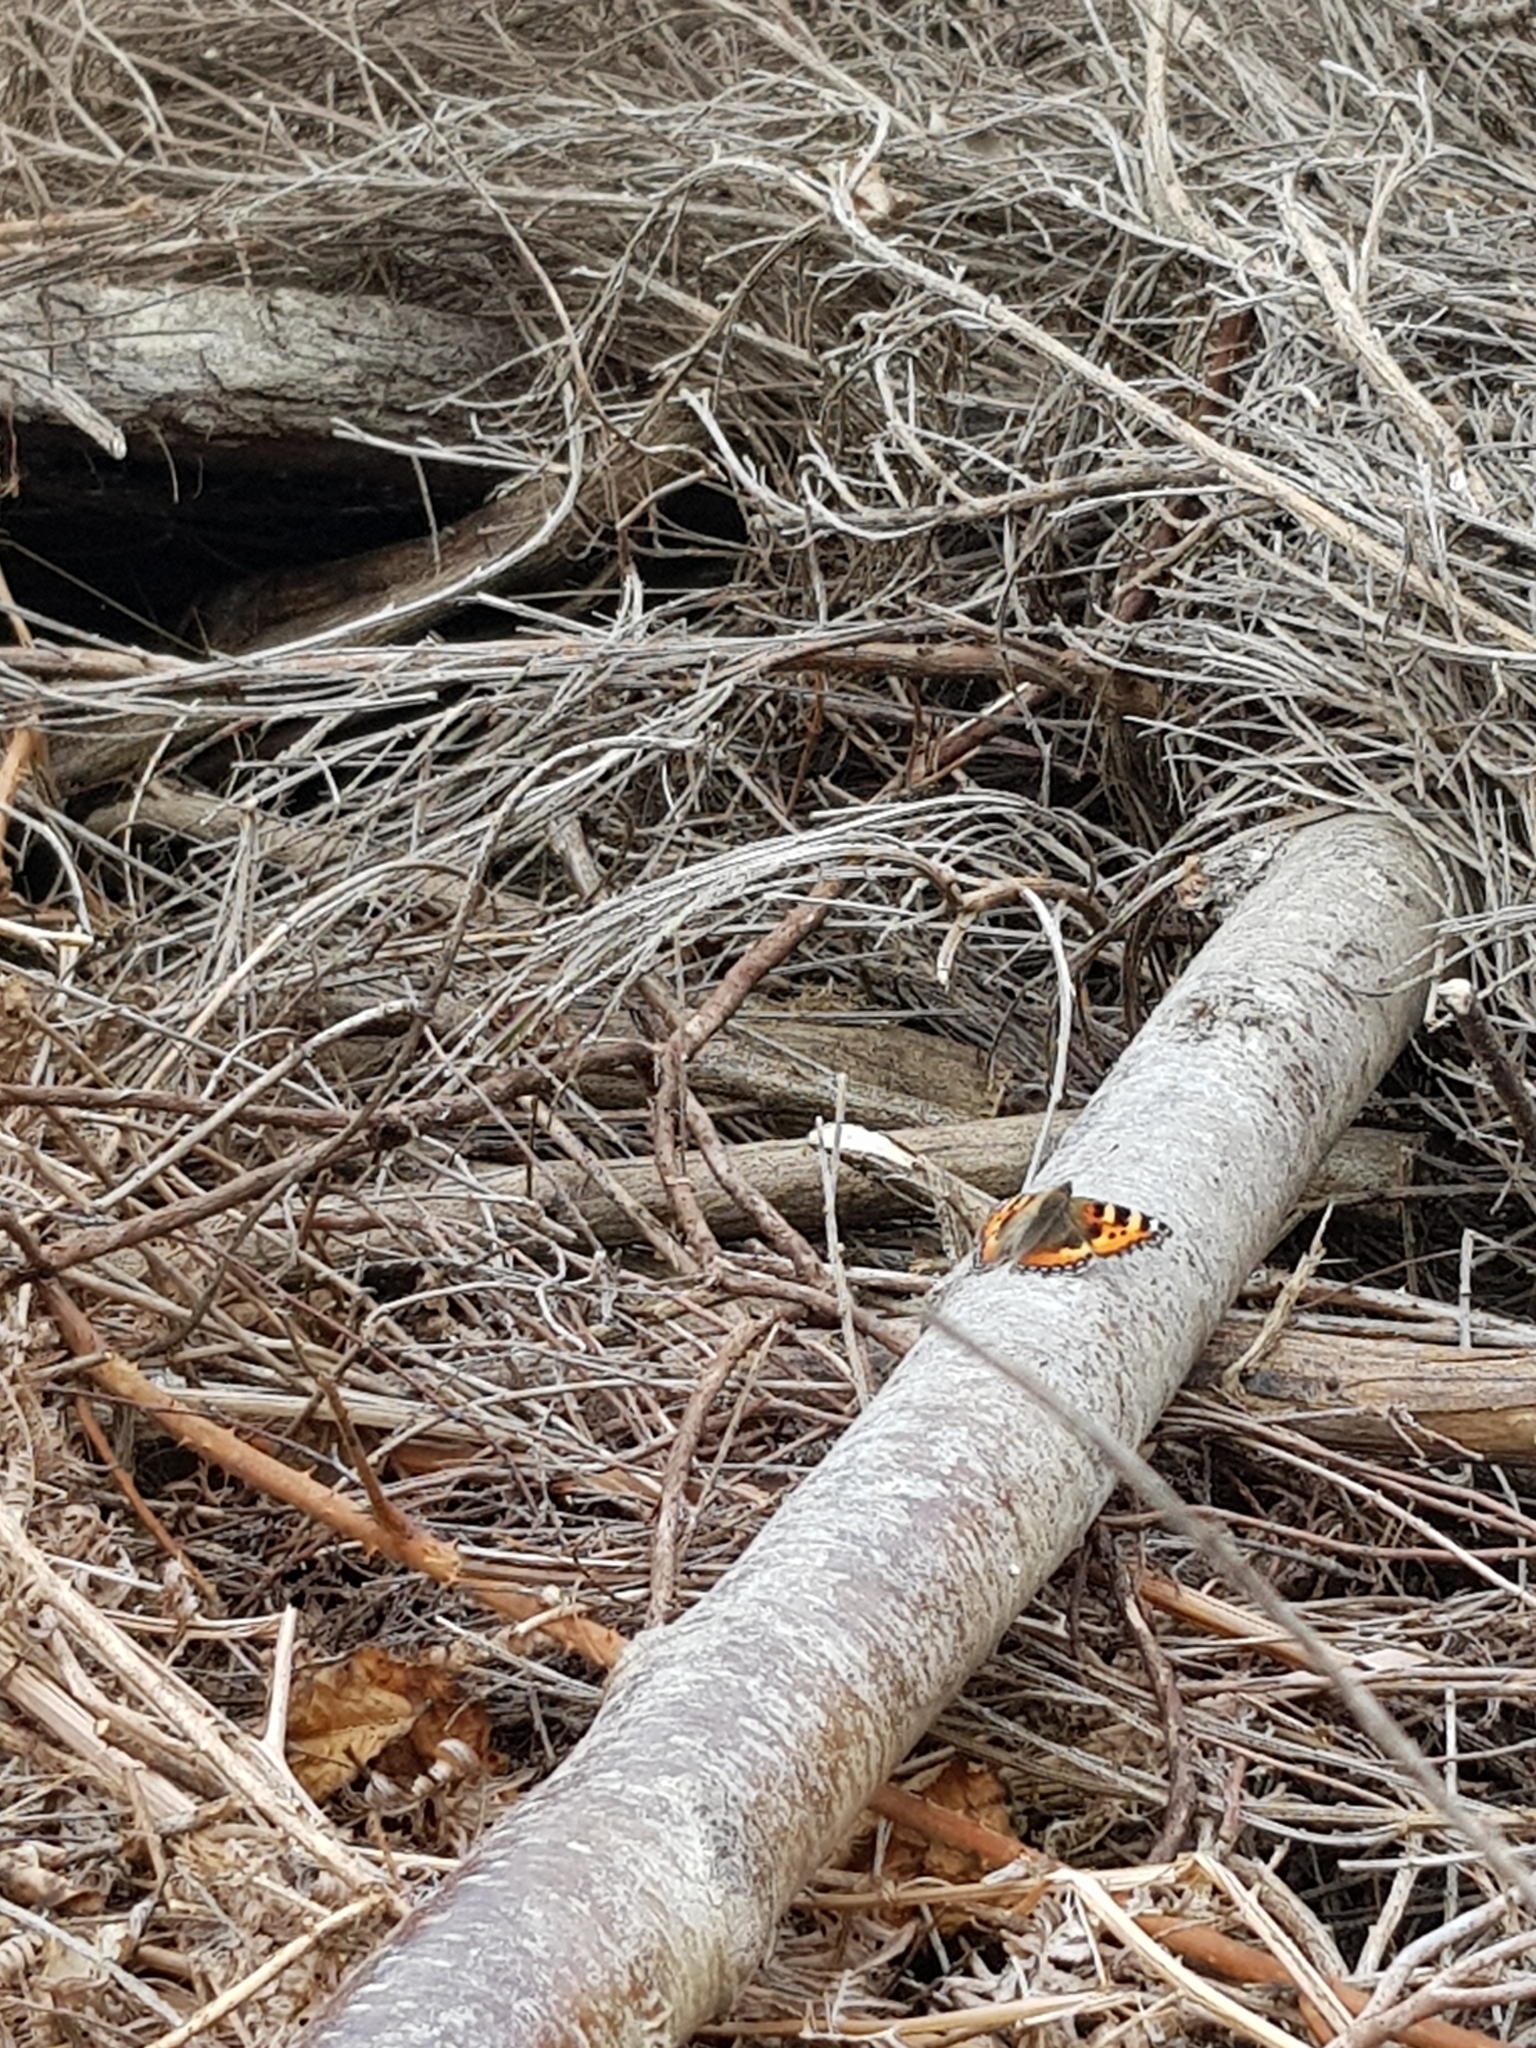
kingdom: Animalia
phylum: Arthropoda
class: Insecta
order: Lepidoptera
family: Nymphalidae
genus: Aglais
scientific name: Aglais urticae
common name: Small tortoiseshell
